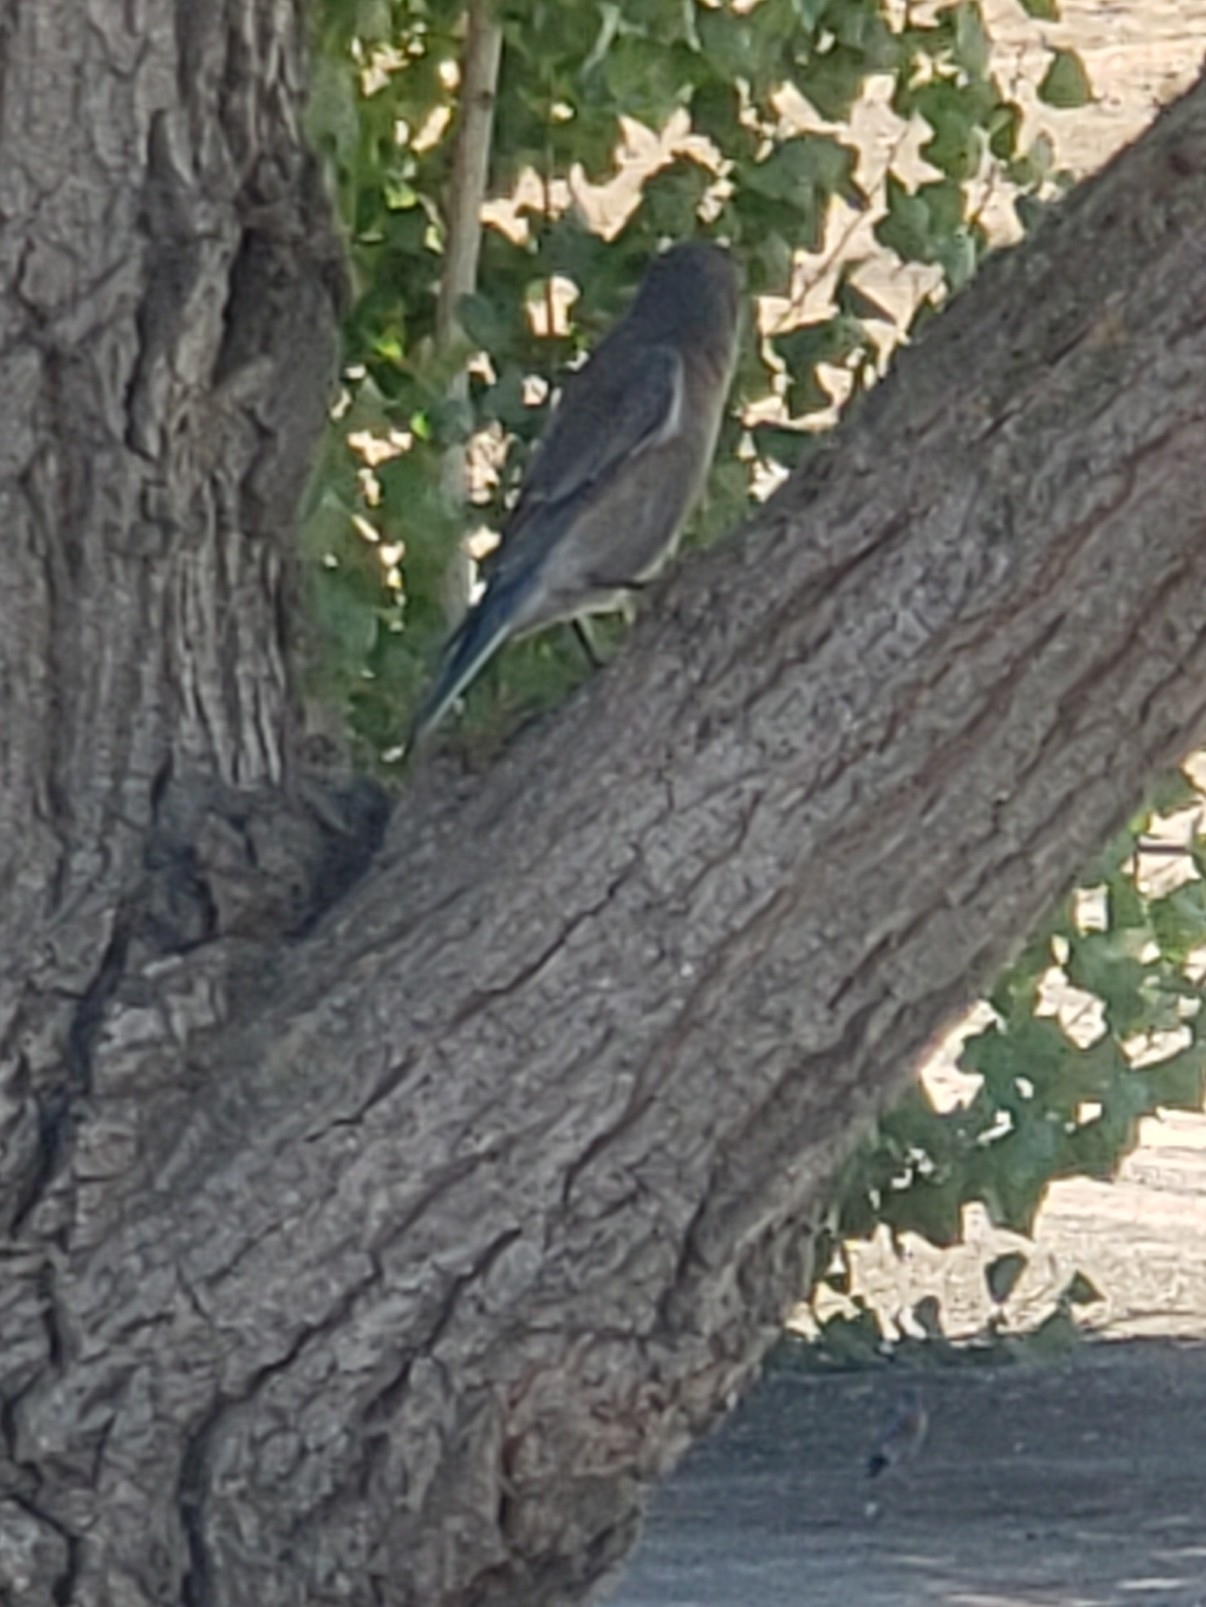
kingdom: Animalia
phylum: Chordata
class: Aves
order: Passeriformes
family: Turdidae
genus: Sialia
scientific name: Sialia mexicana
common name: Western bluebird
